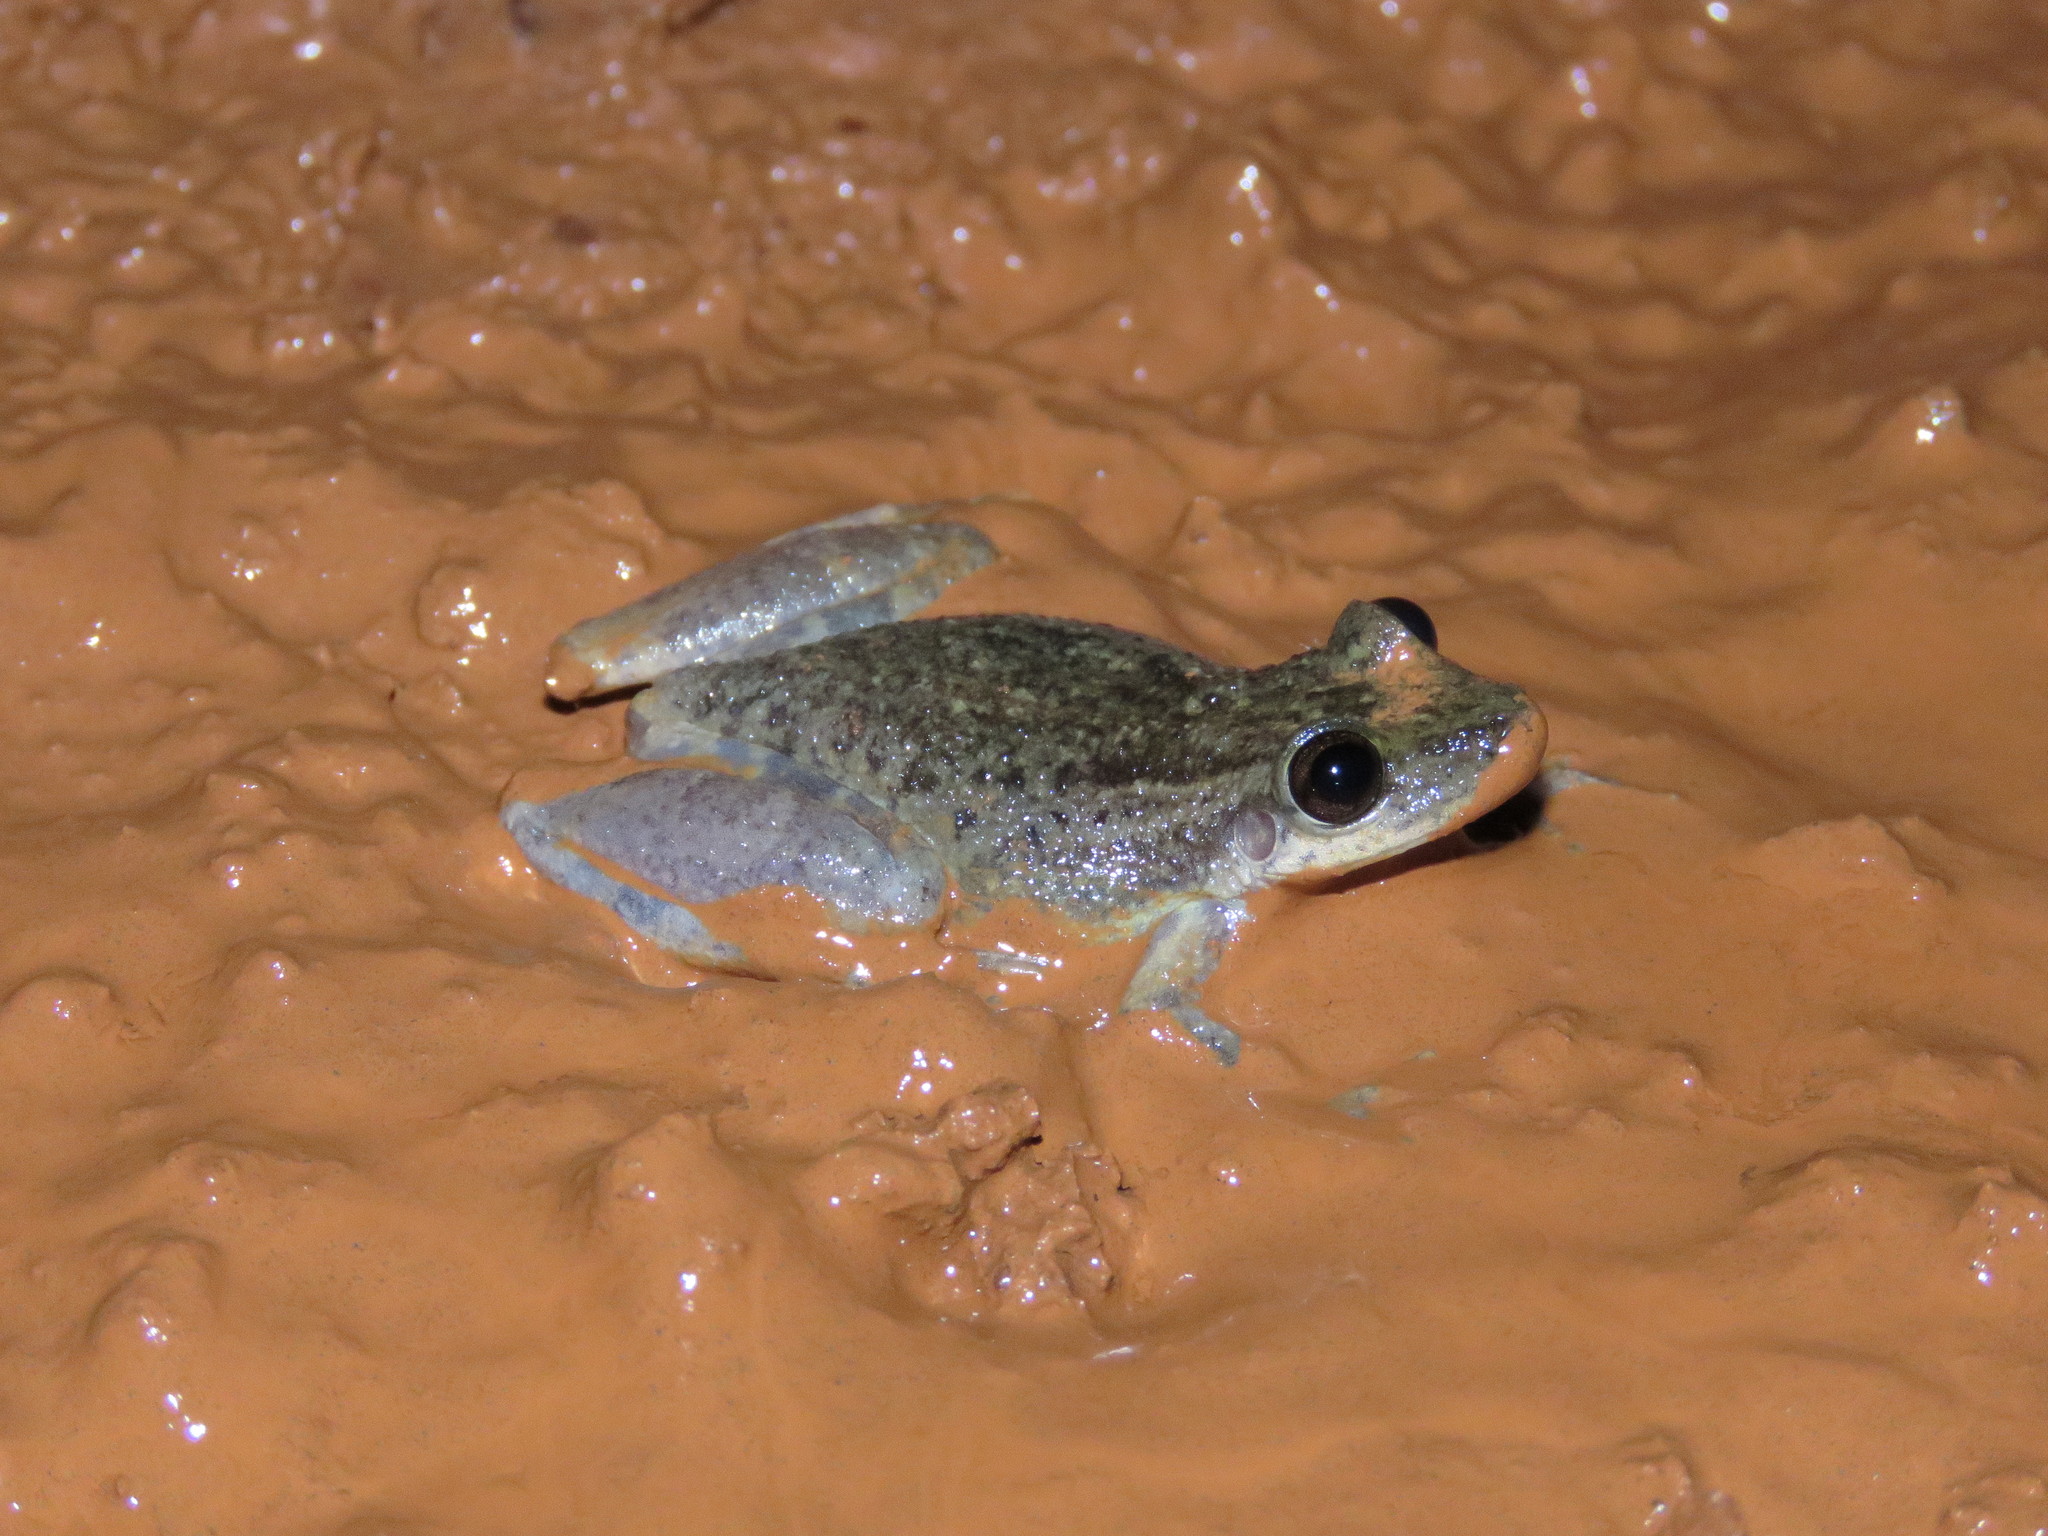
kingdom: Animalia
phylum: Chordata
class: Amphibia
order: Anura
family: Hylidae
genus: Scinax
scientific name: Scinax ruber
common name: Red snouted treefrog
